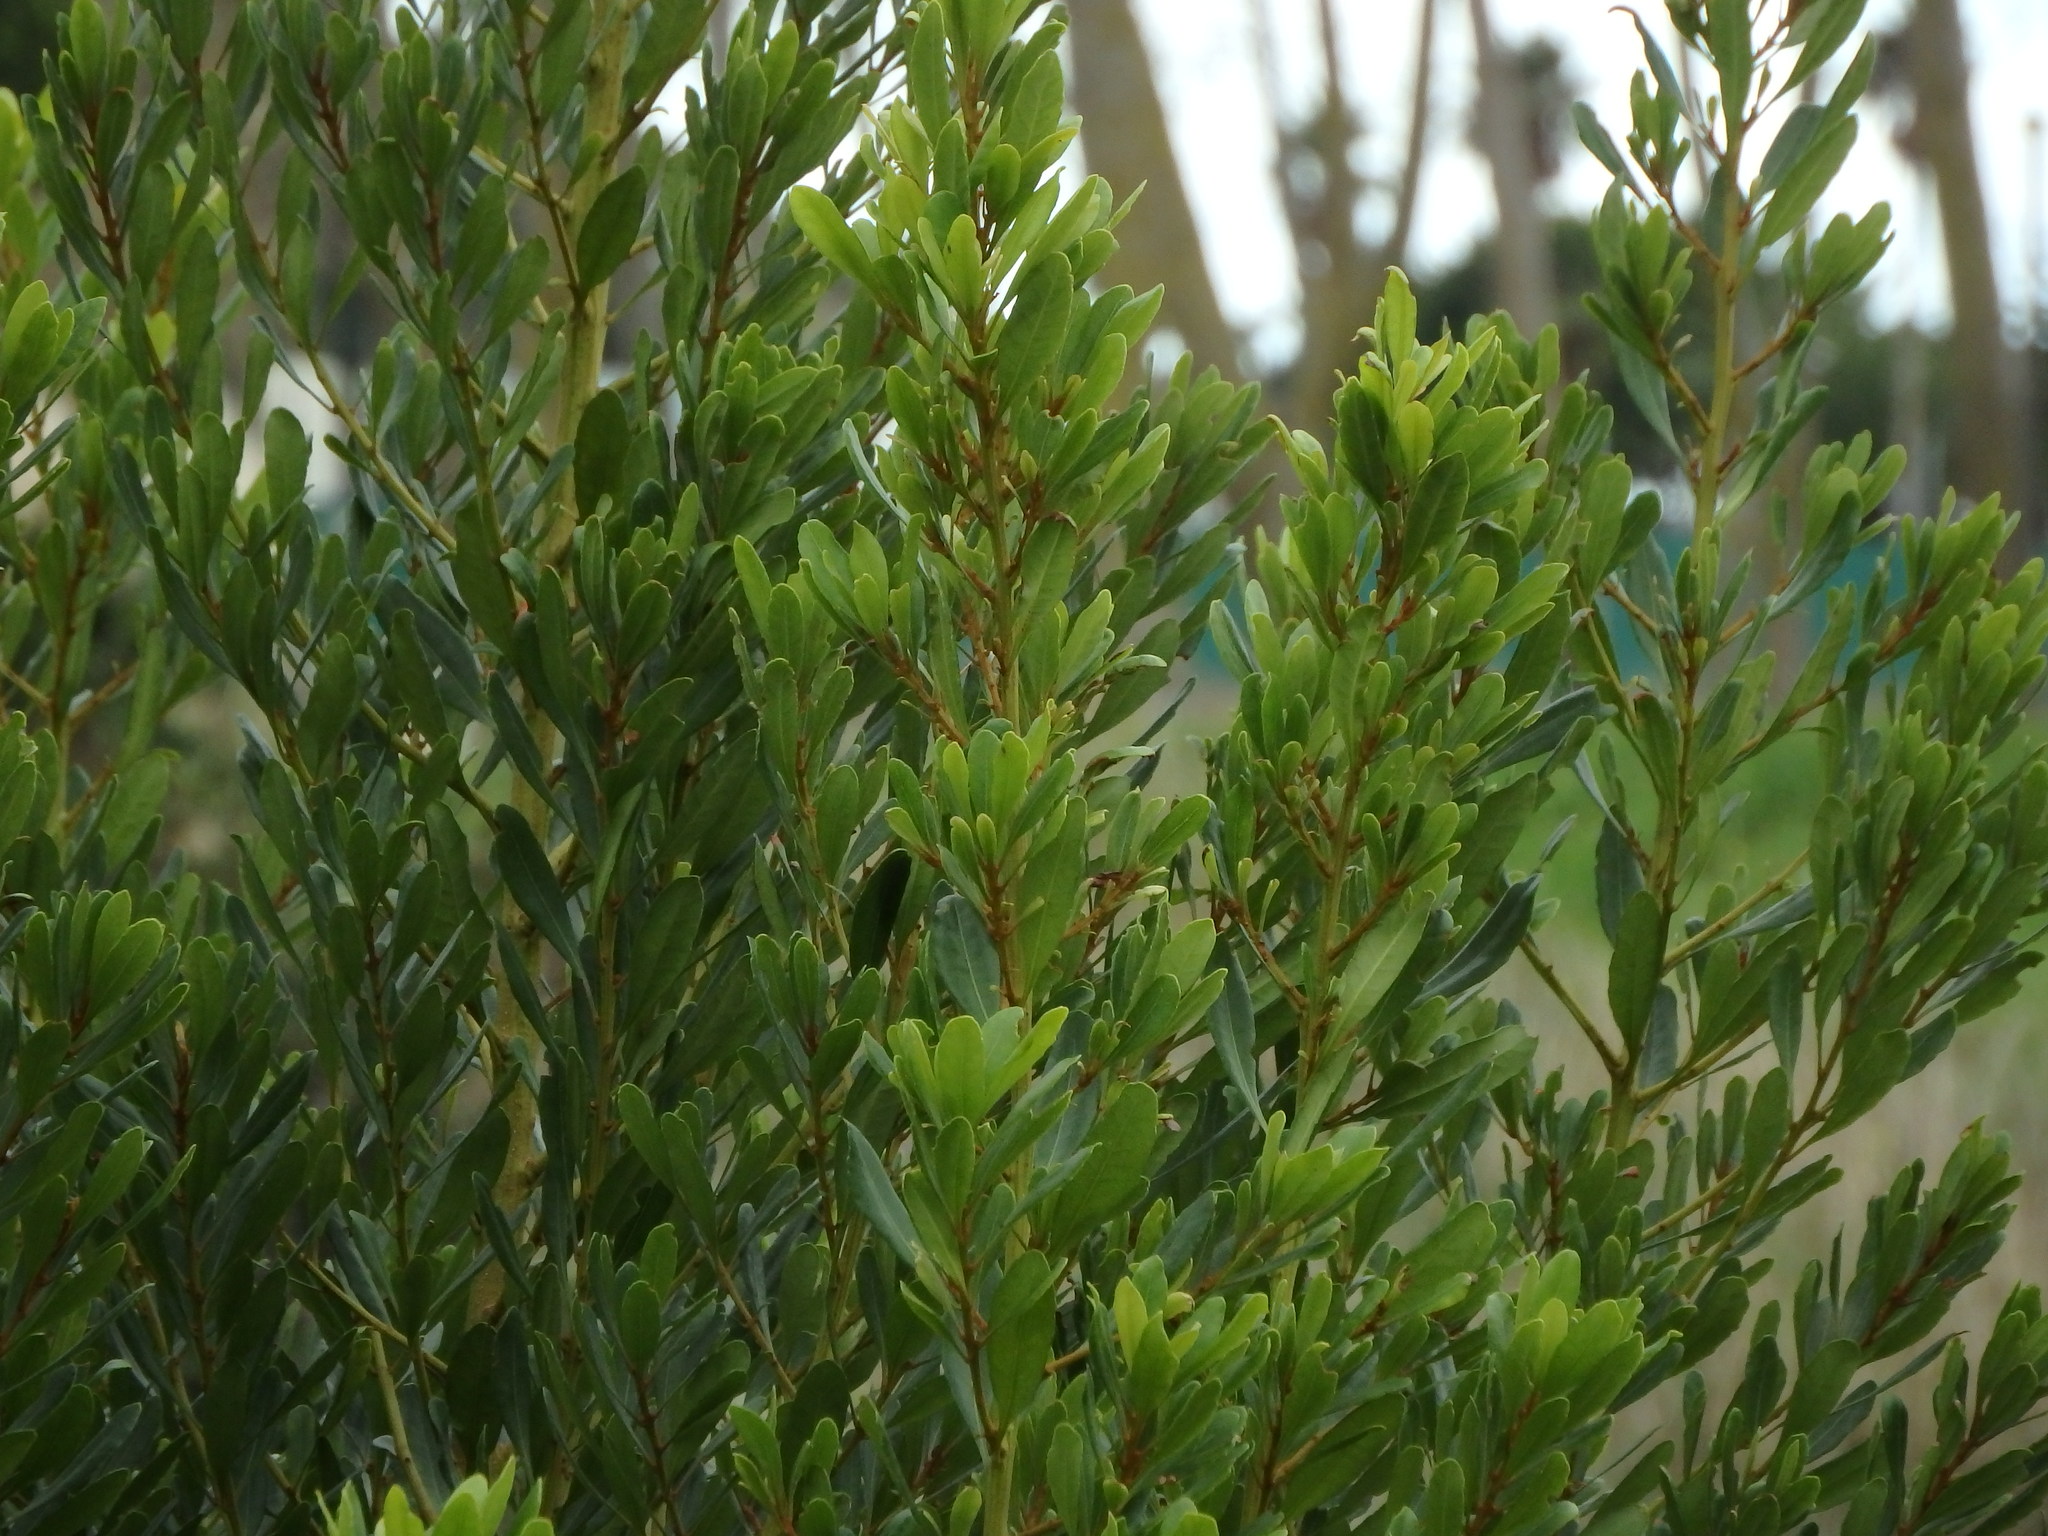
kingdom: Plantae
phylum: Tracheophyta
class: Magnoliopsida
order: Fagales
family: Myricaceae
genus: Morella
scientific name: Morella faya
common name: Firetree
